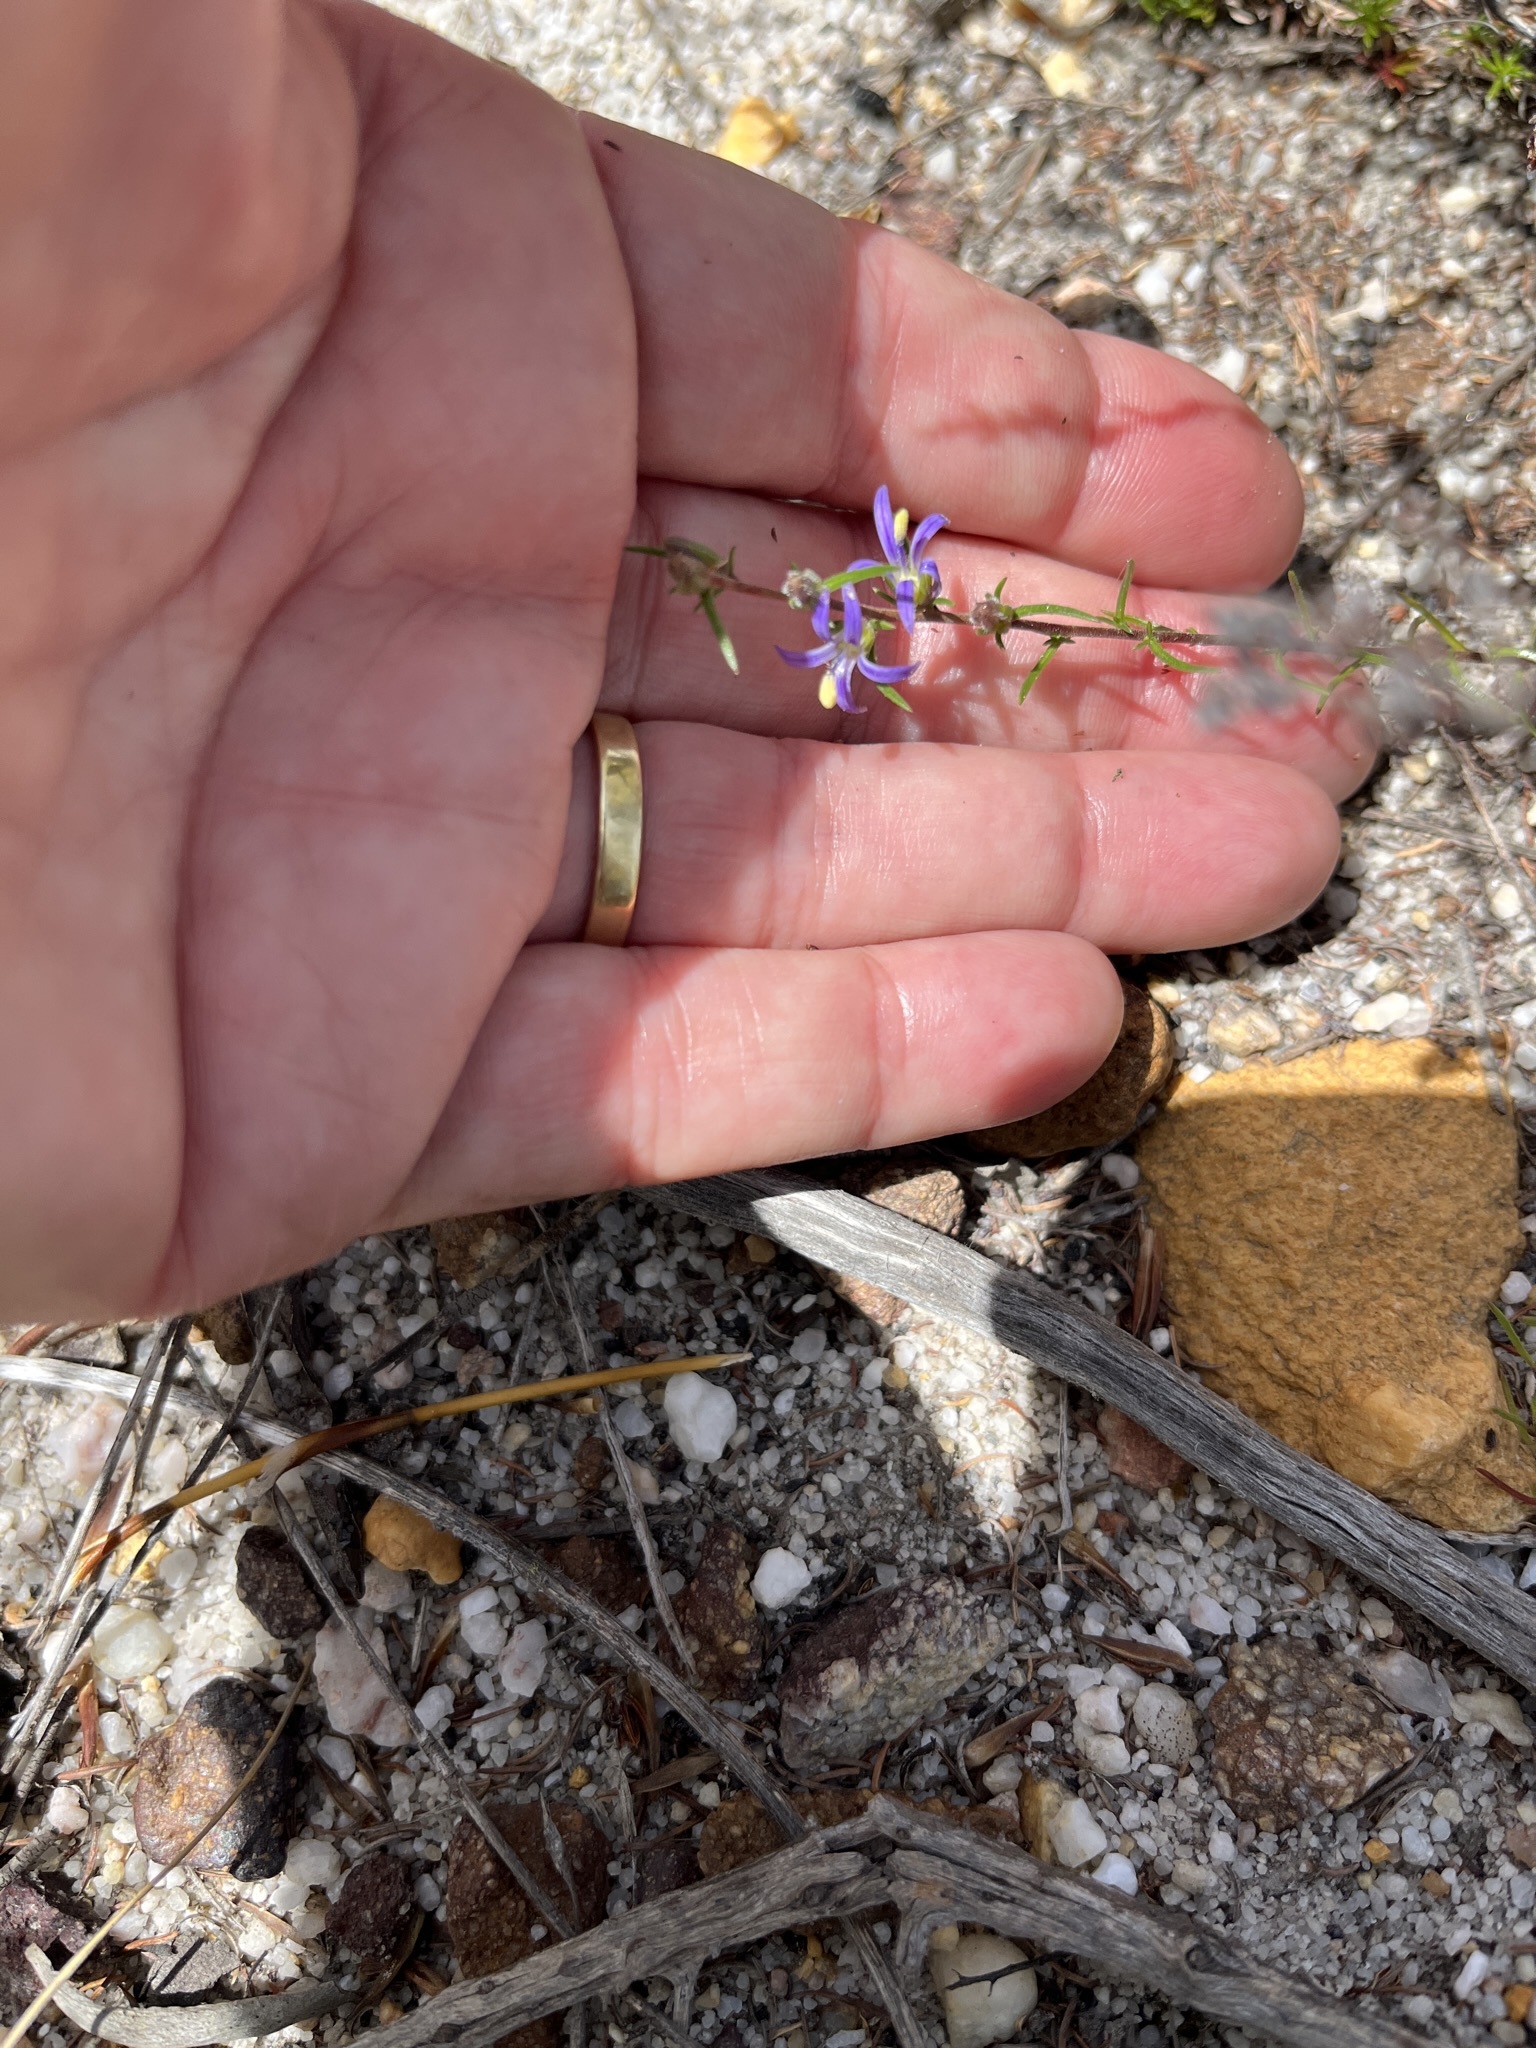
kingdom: Plantae
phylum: Tracheophyta
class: Magnoliopsida
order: Asterales
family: Campanulaceae
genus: Wahlenbergia
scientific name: Wahlenbergia subulata
